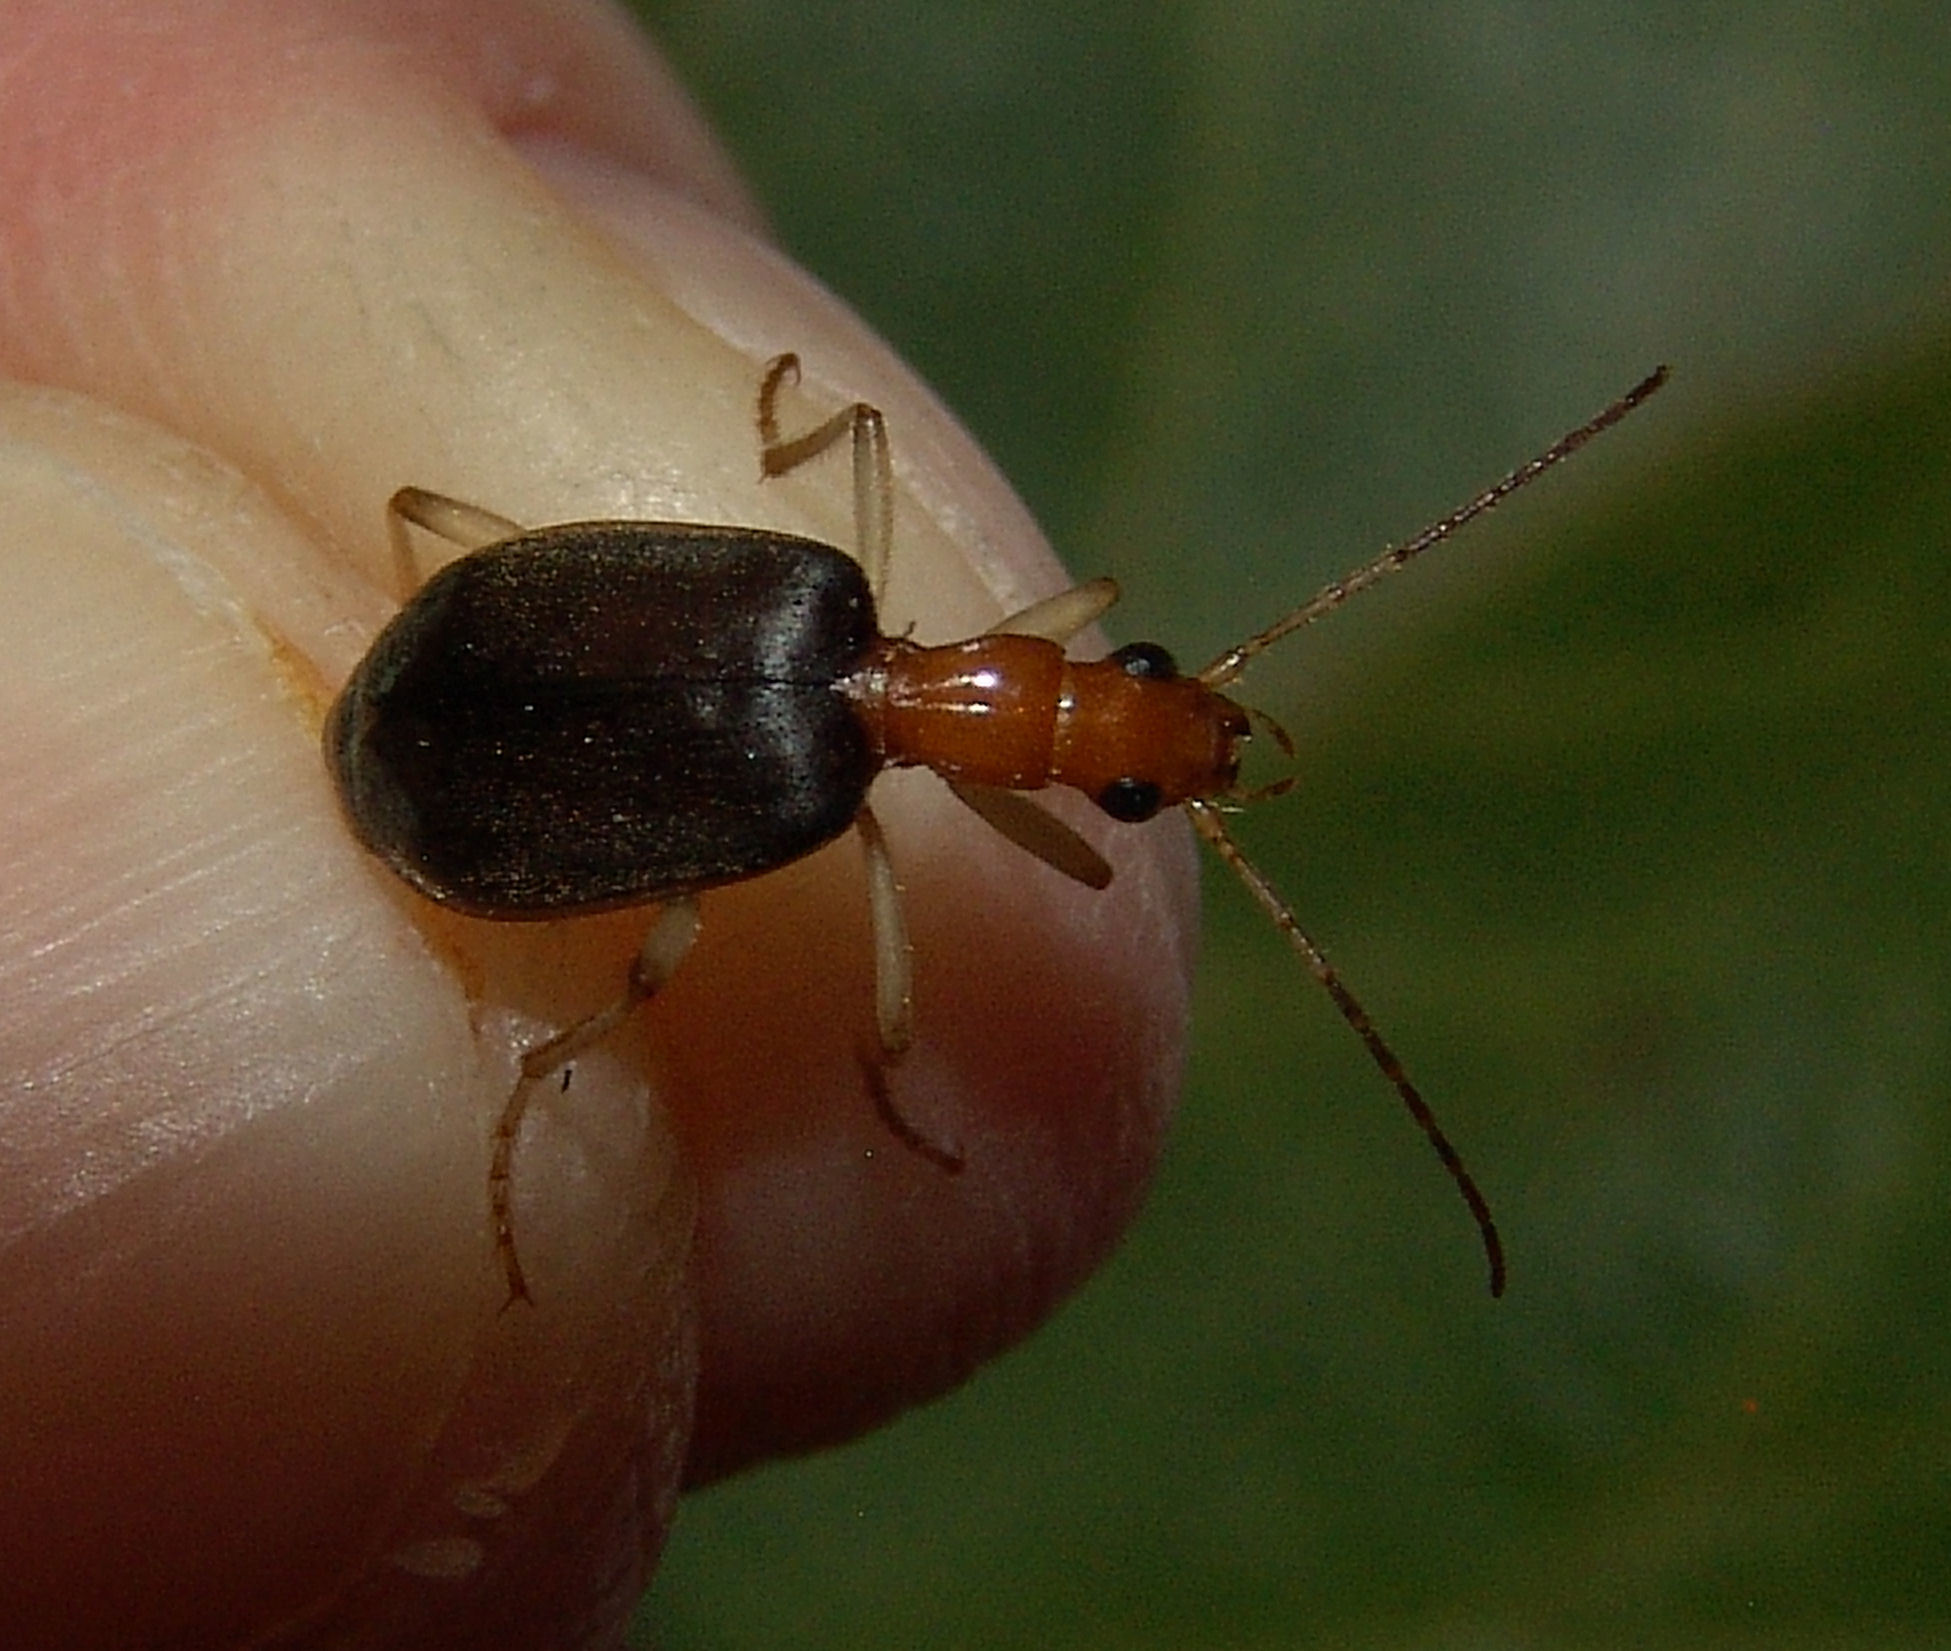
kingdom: Animalia
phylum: Arthropoda
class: Insecta
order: Coleoptera
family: Carabidae
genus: Brachinus
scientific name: Brachinus adustipennis
